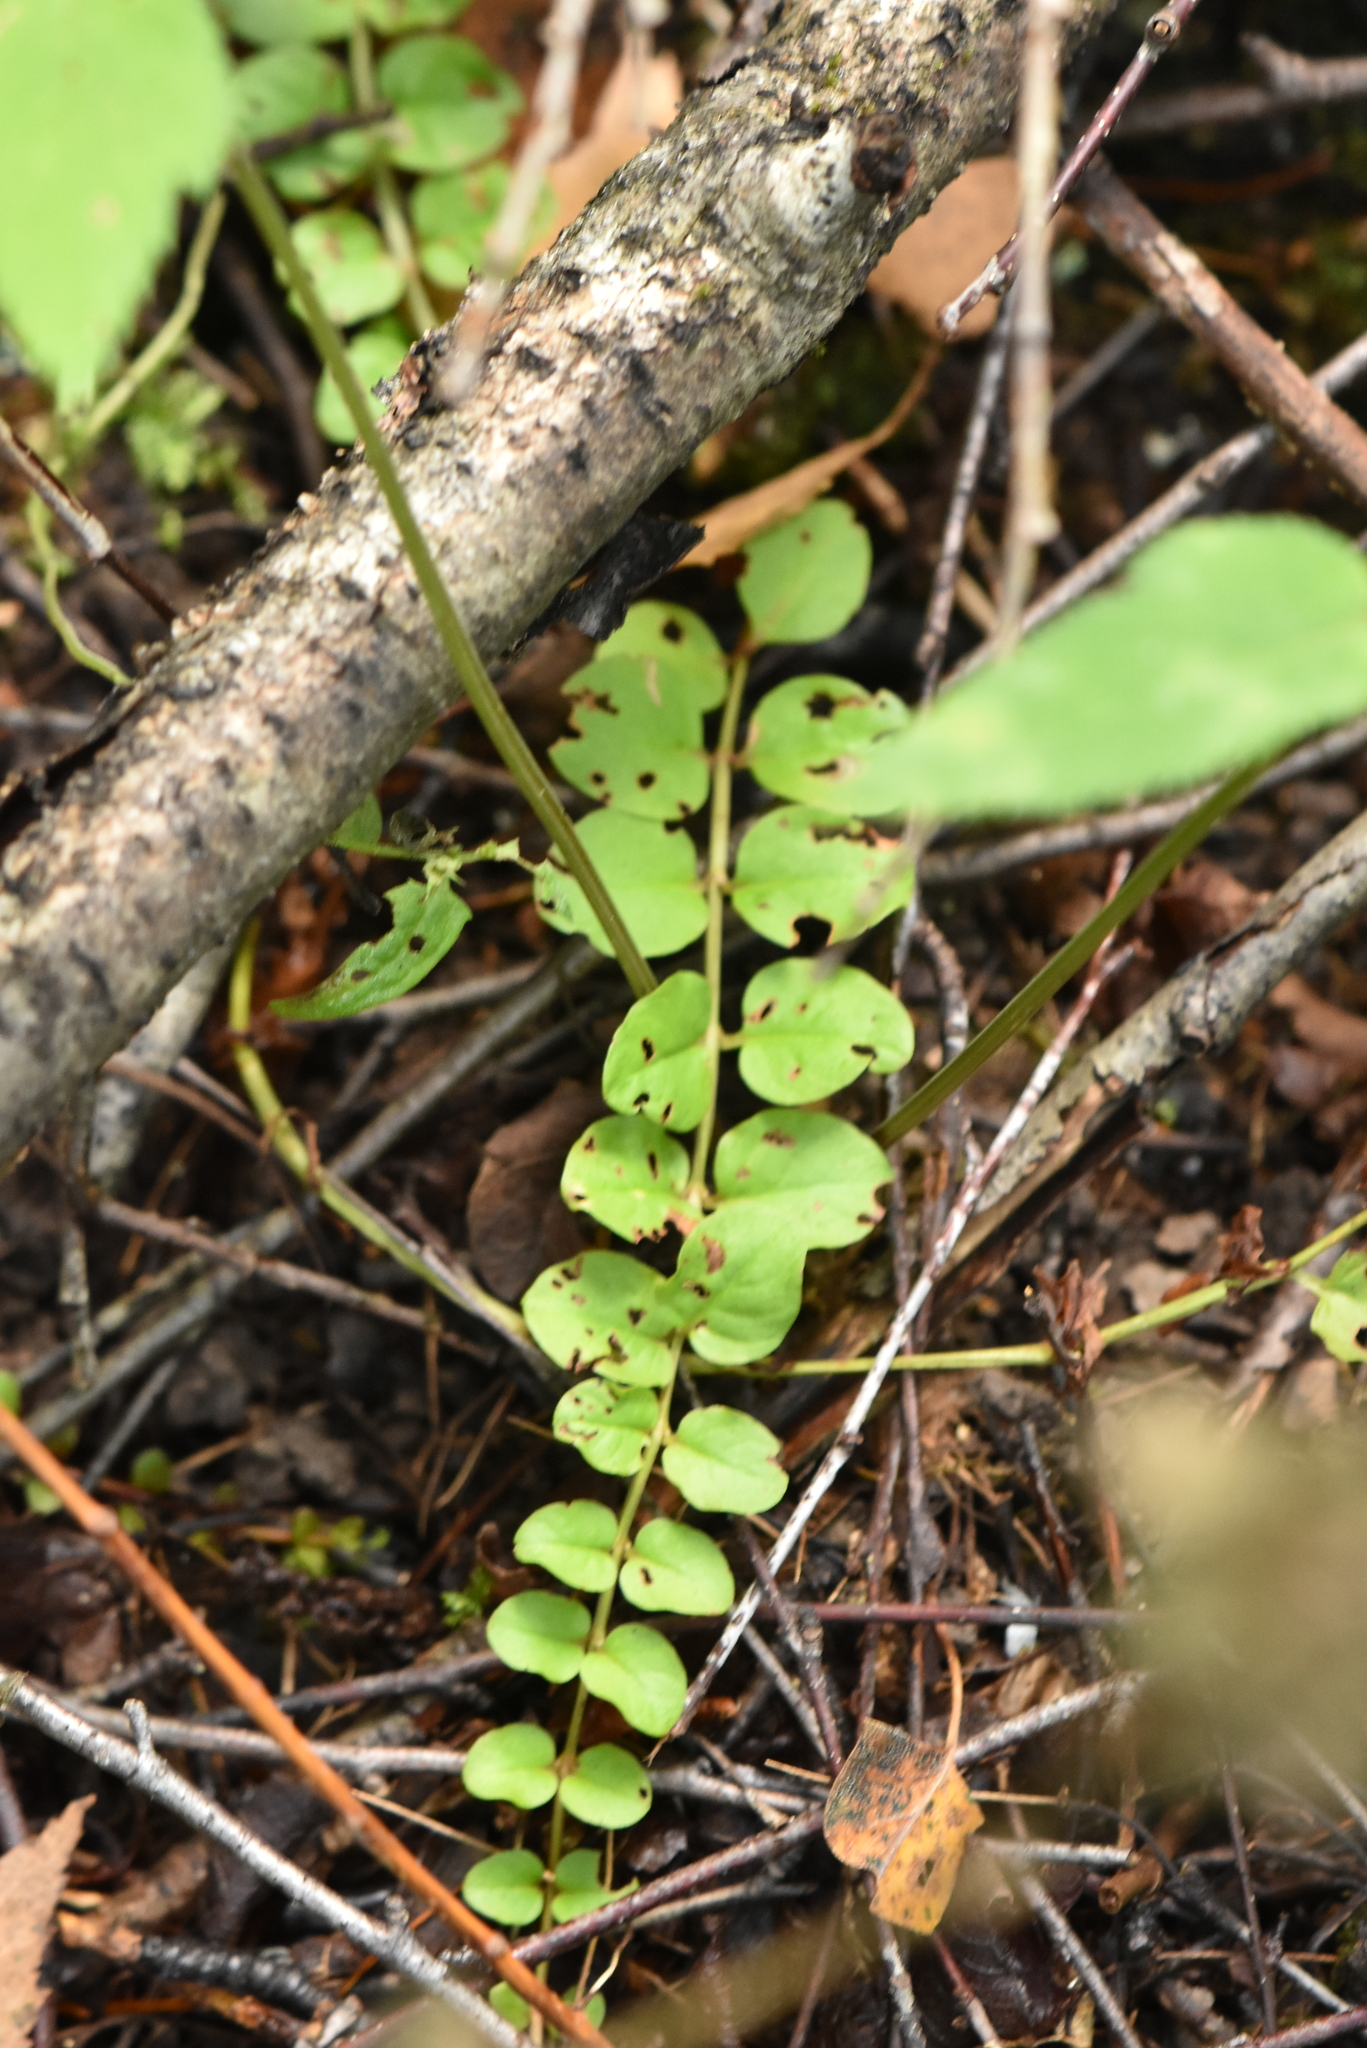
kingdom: Plantae
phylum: Tracheophyta
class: Magnoliopsida
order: Ericales
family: Primulaceae
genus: Lysimachia
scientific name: Lysimachia nummularia
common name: Moneywort
